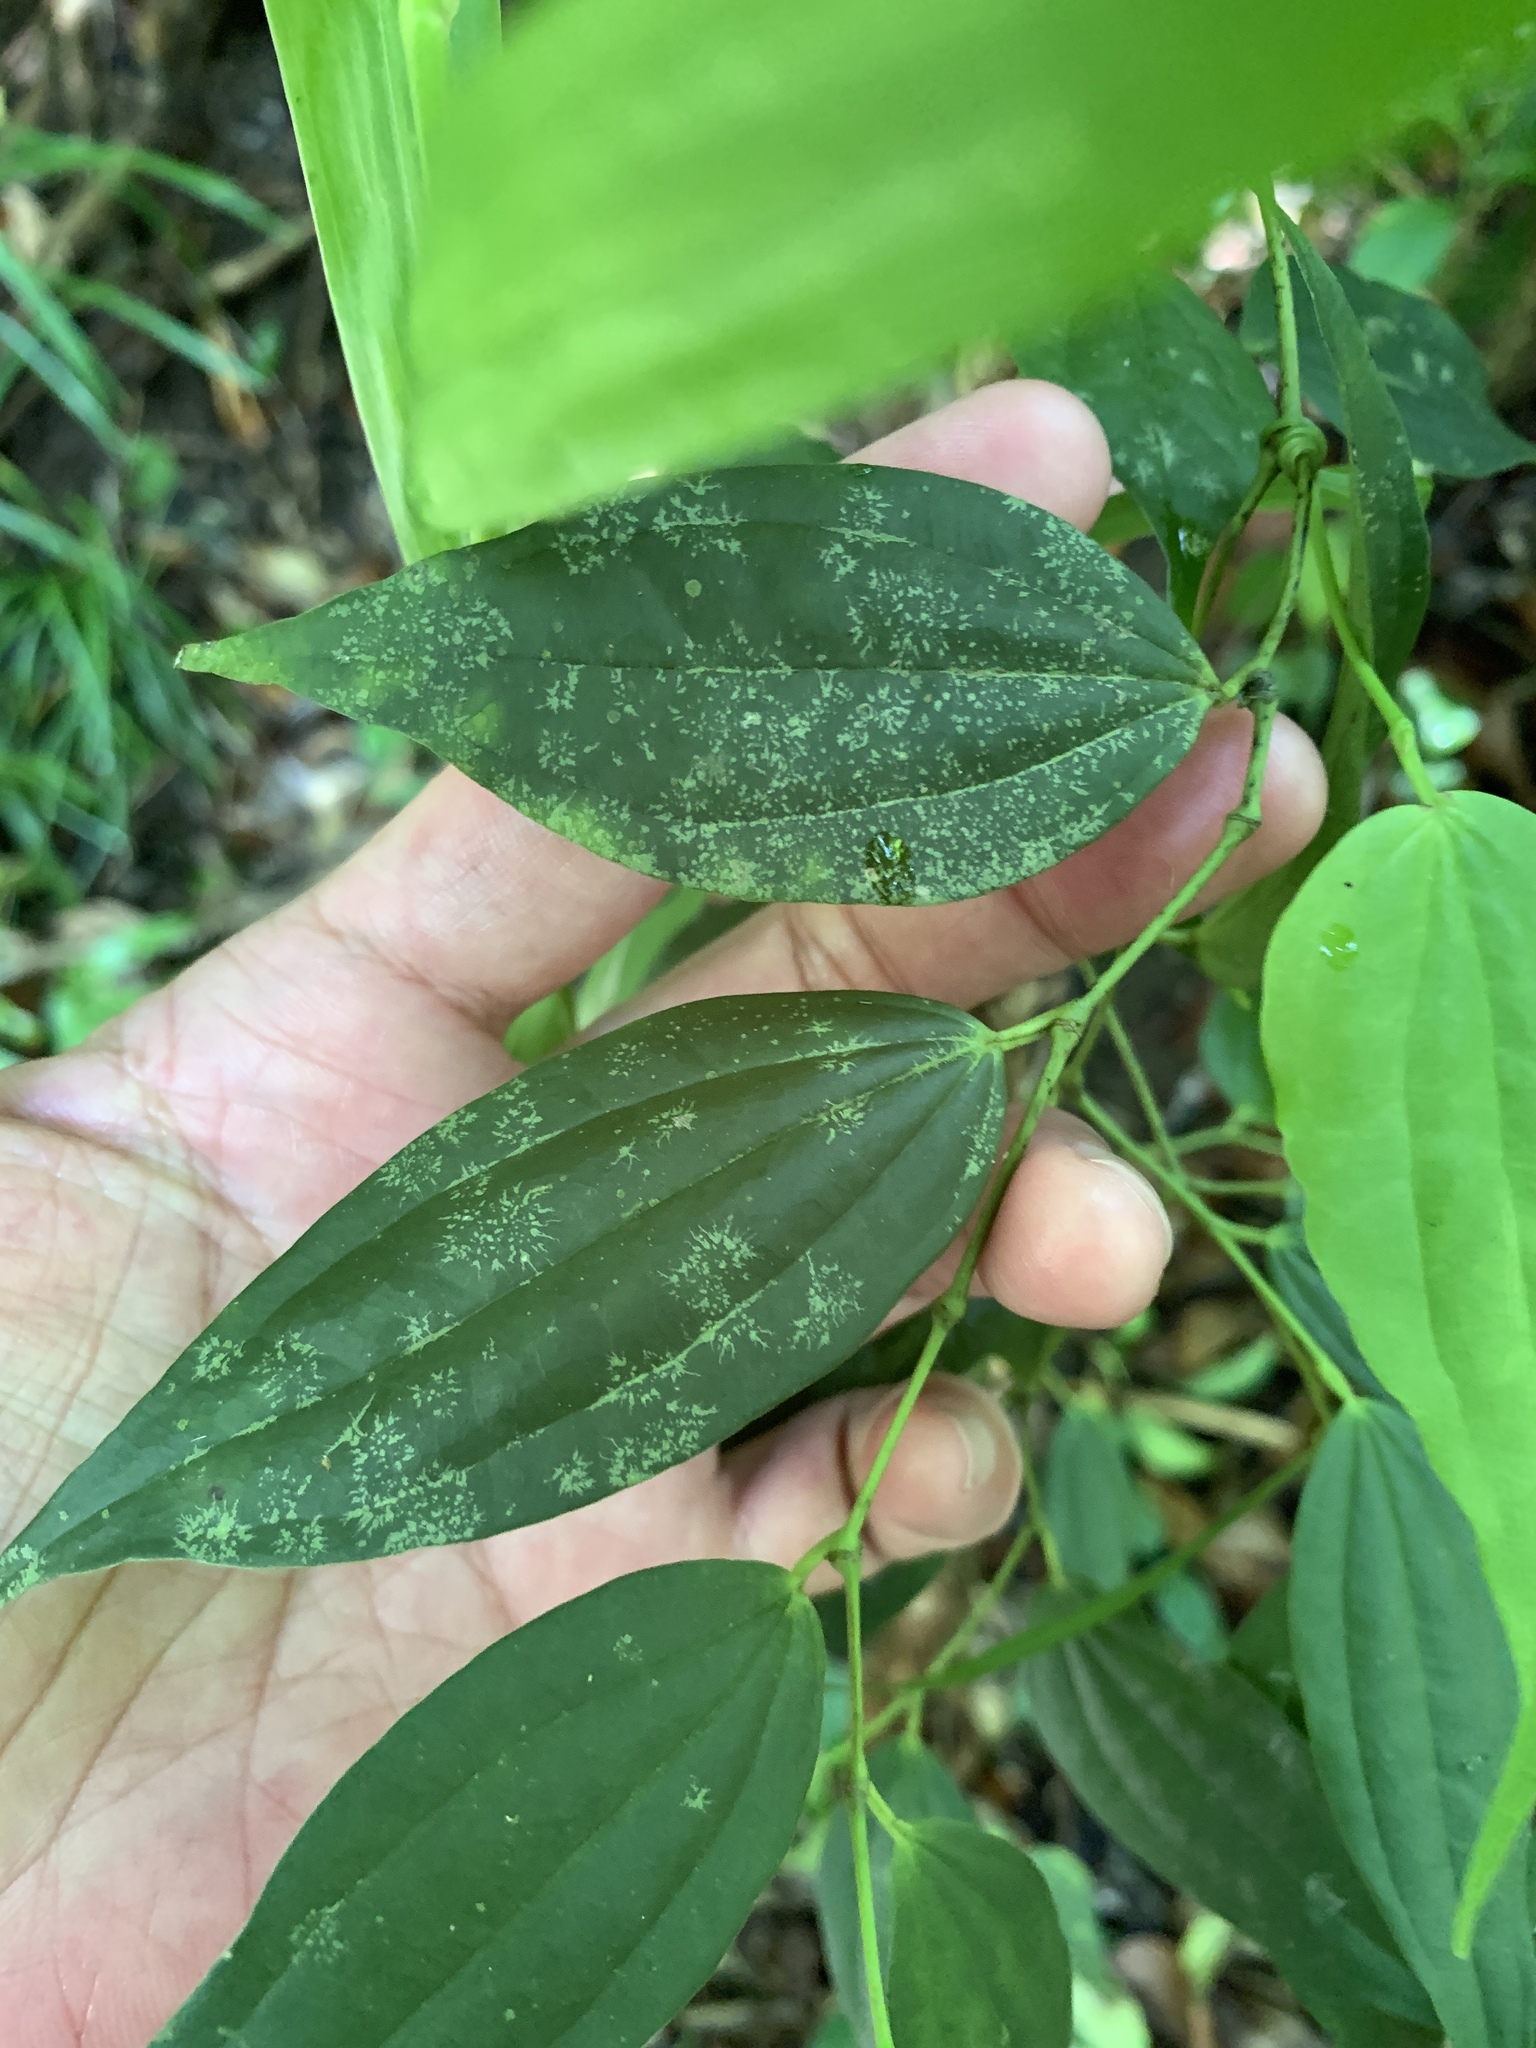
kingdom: Plantae
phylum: Tracheophyta
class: Magnoliopsida
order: Piperales
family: Piperaceae
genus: Piper
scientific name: Piper
